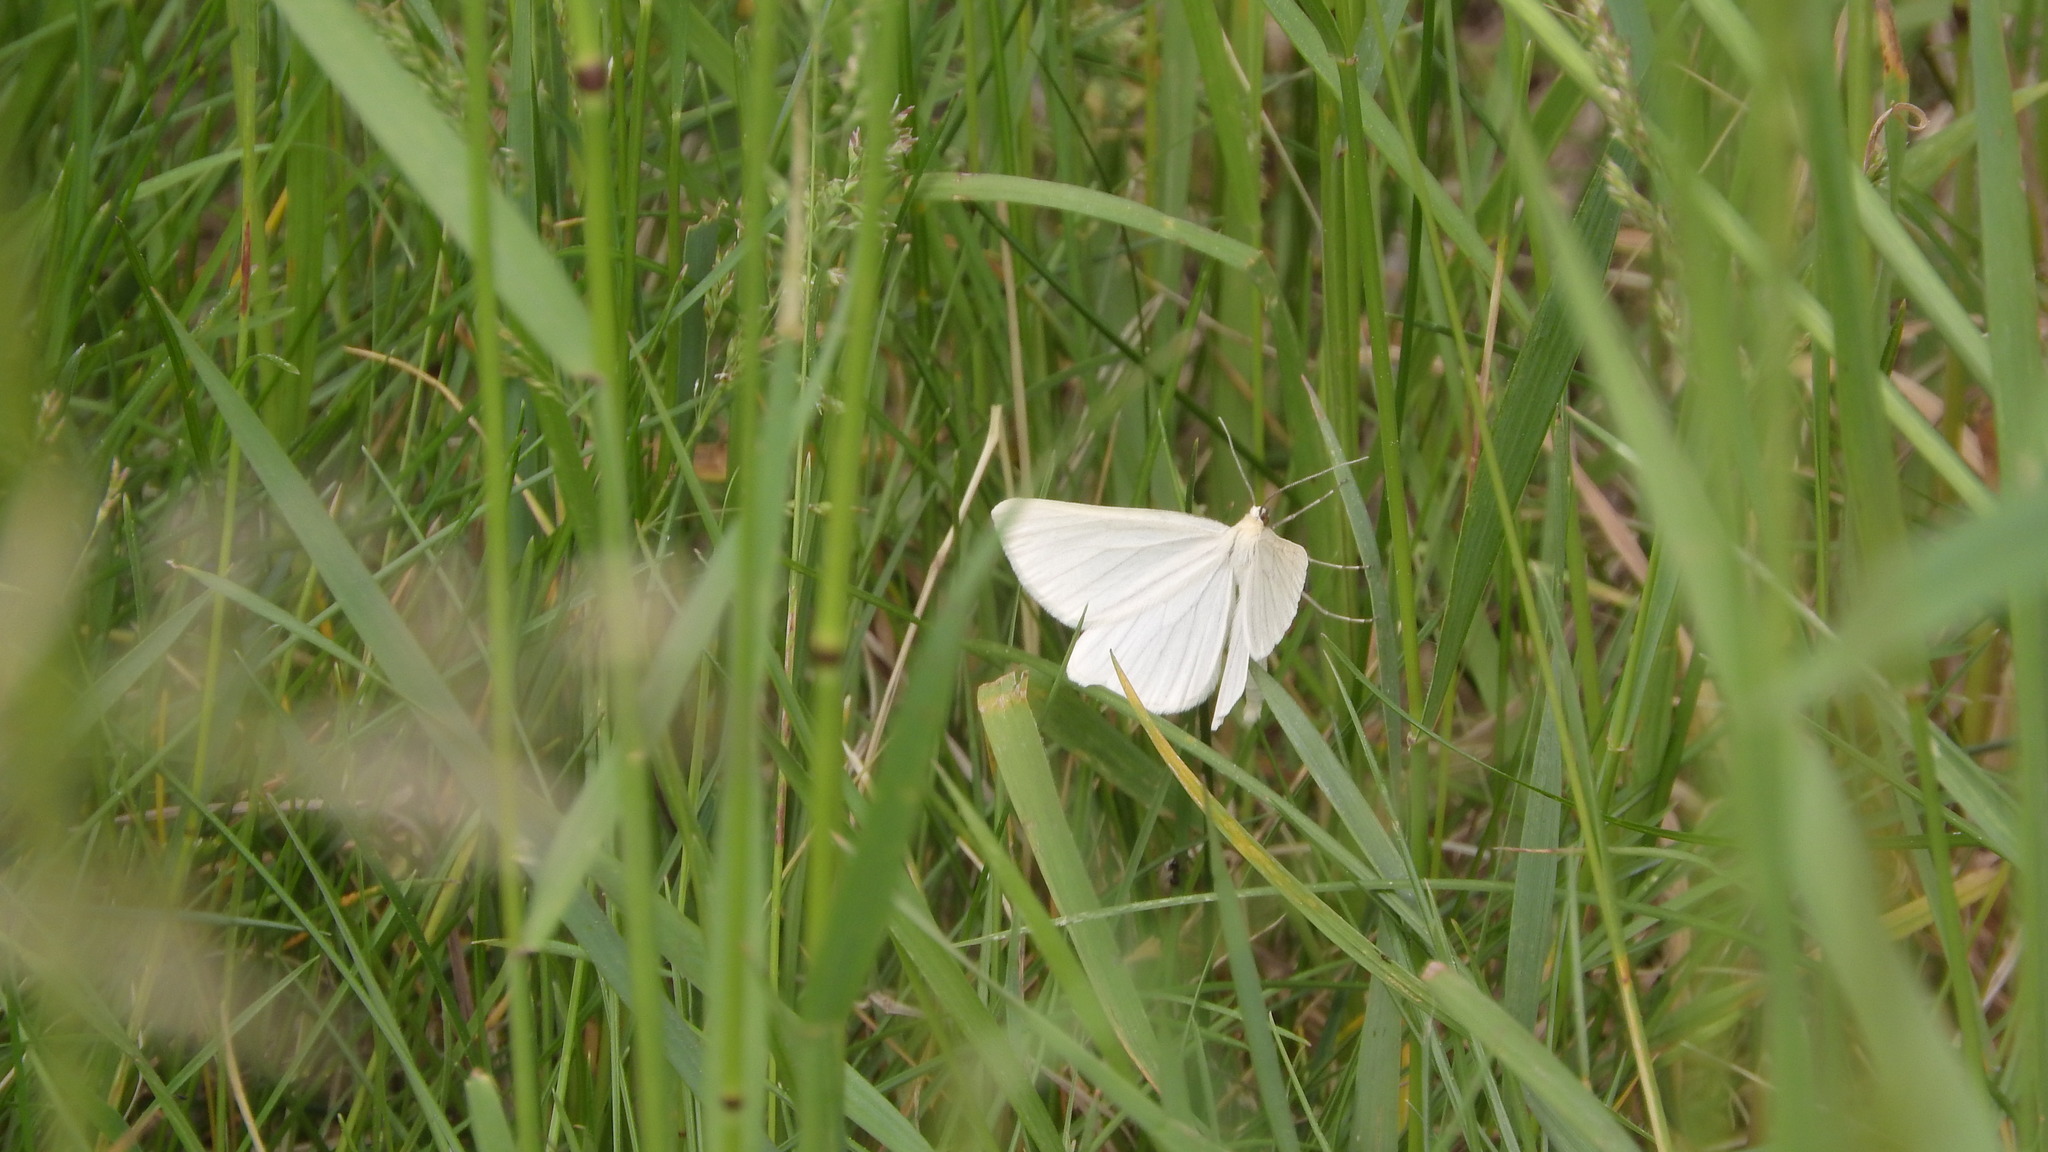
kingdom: Animalia
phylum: Arthropoda
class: Insecta
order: Lepidoptera
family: Geometridae
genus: Siona
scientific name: Siona lineata
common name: Black-veined moth
